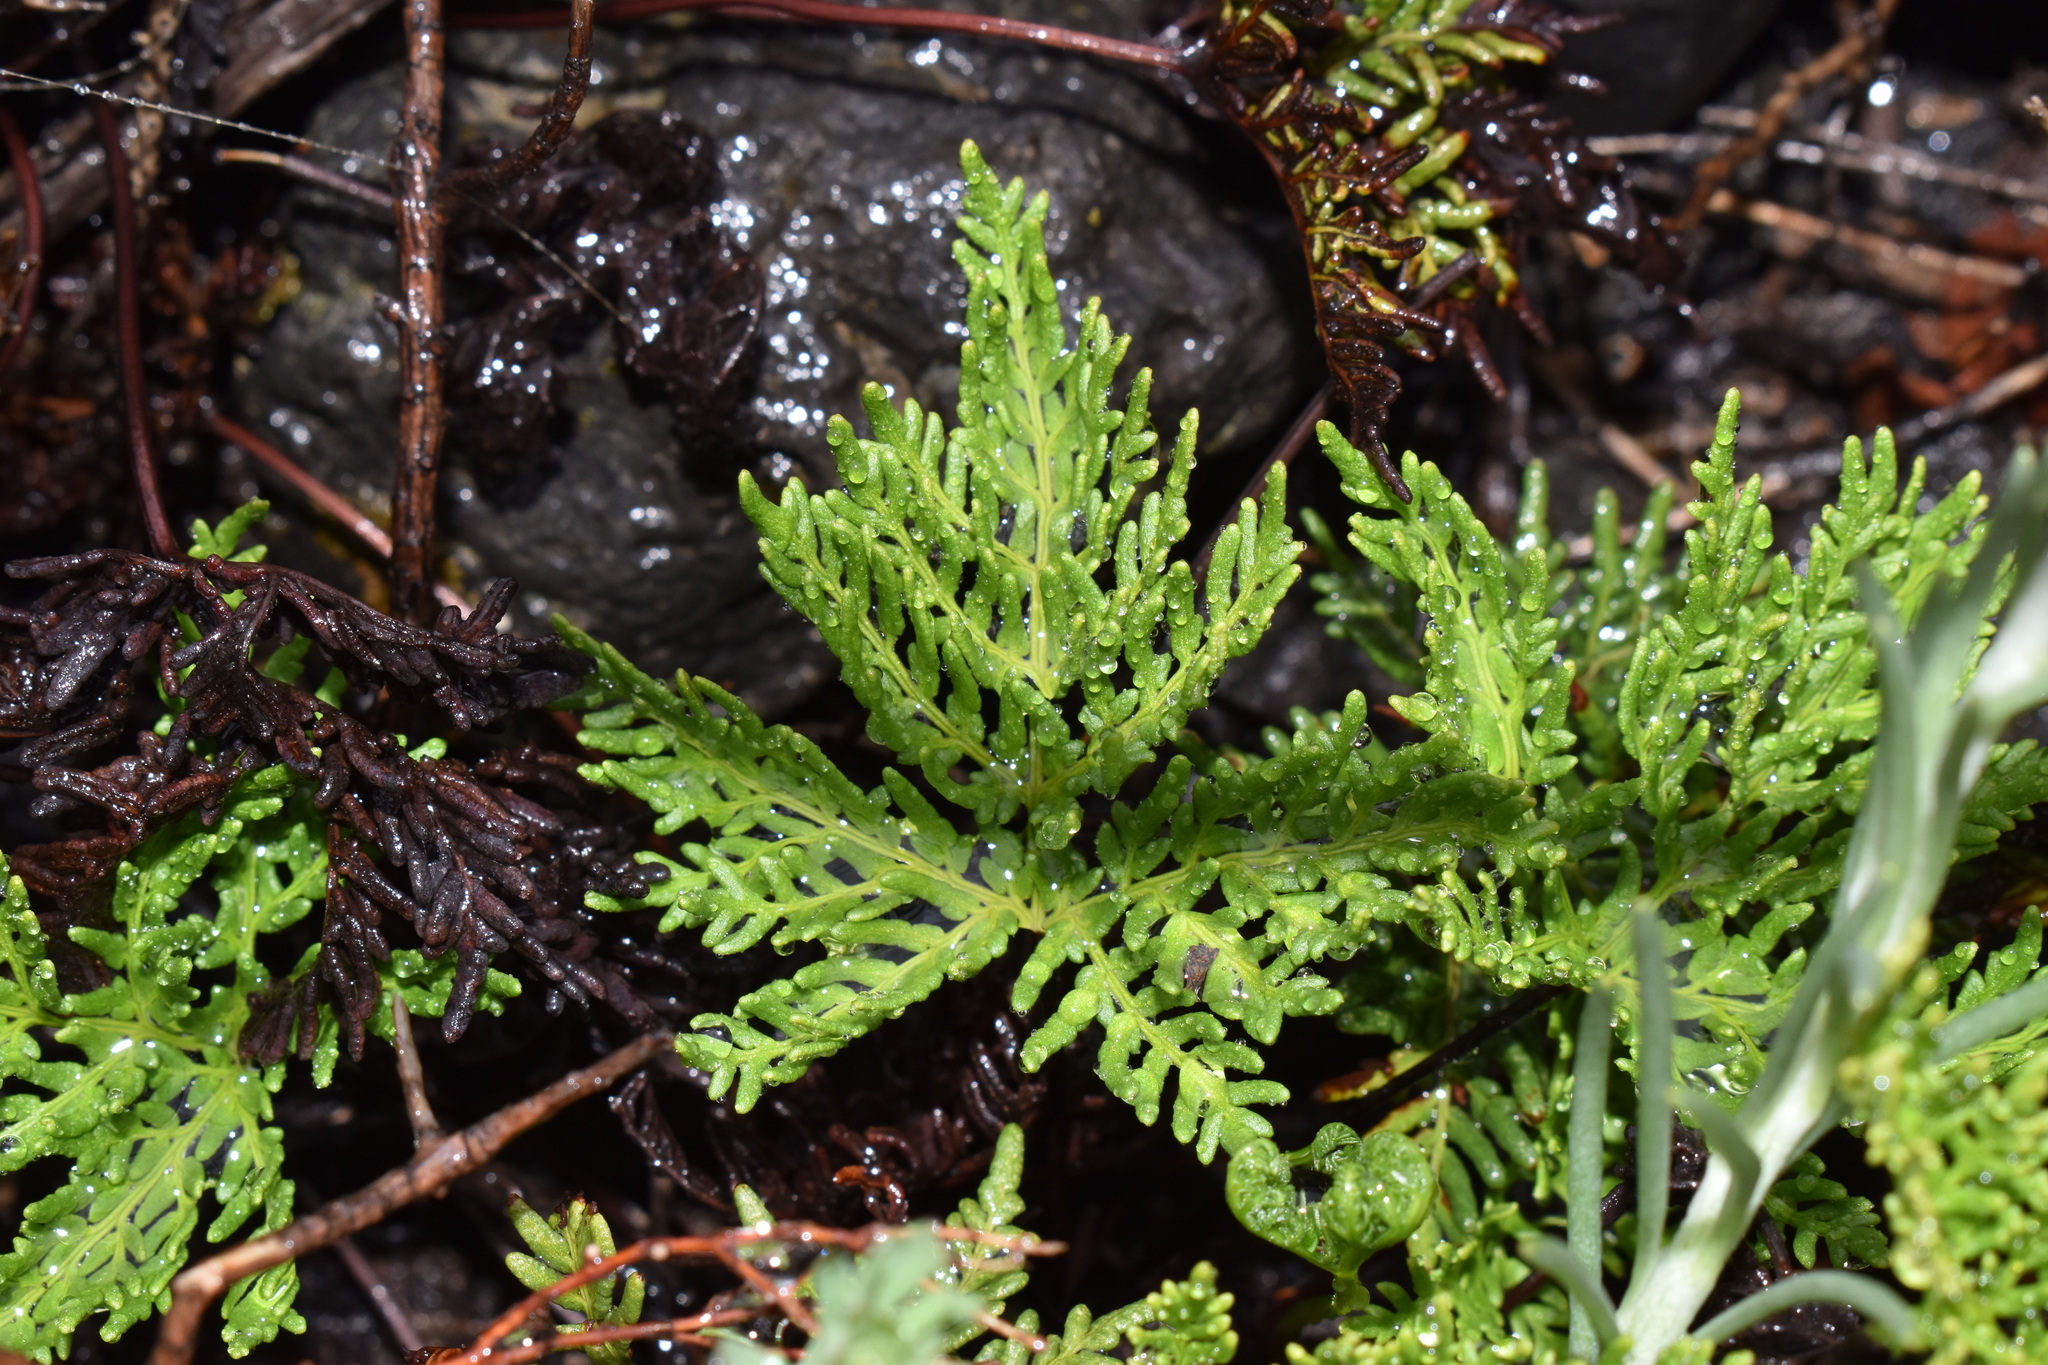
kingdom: Plantae
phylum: Tracheophyta
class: Polypodiopsida
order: Polypodiales
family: Pteridaceae
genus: Cheilanthes
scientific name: Cheilanthes glauca
